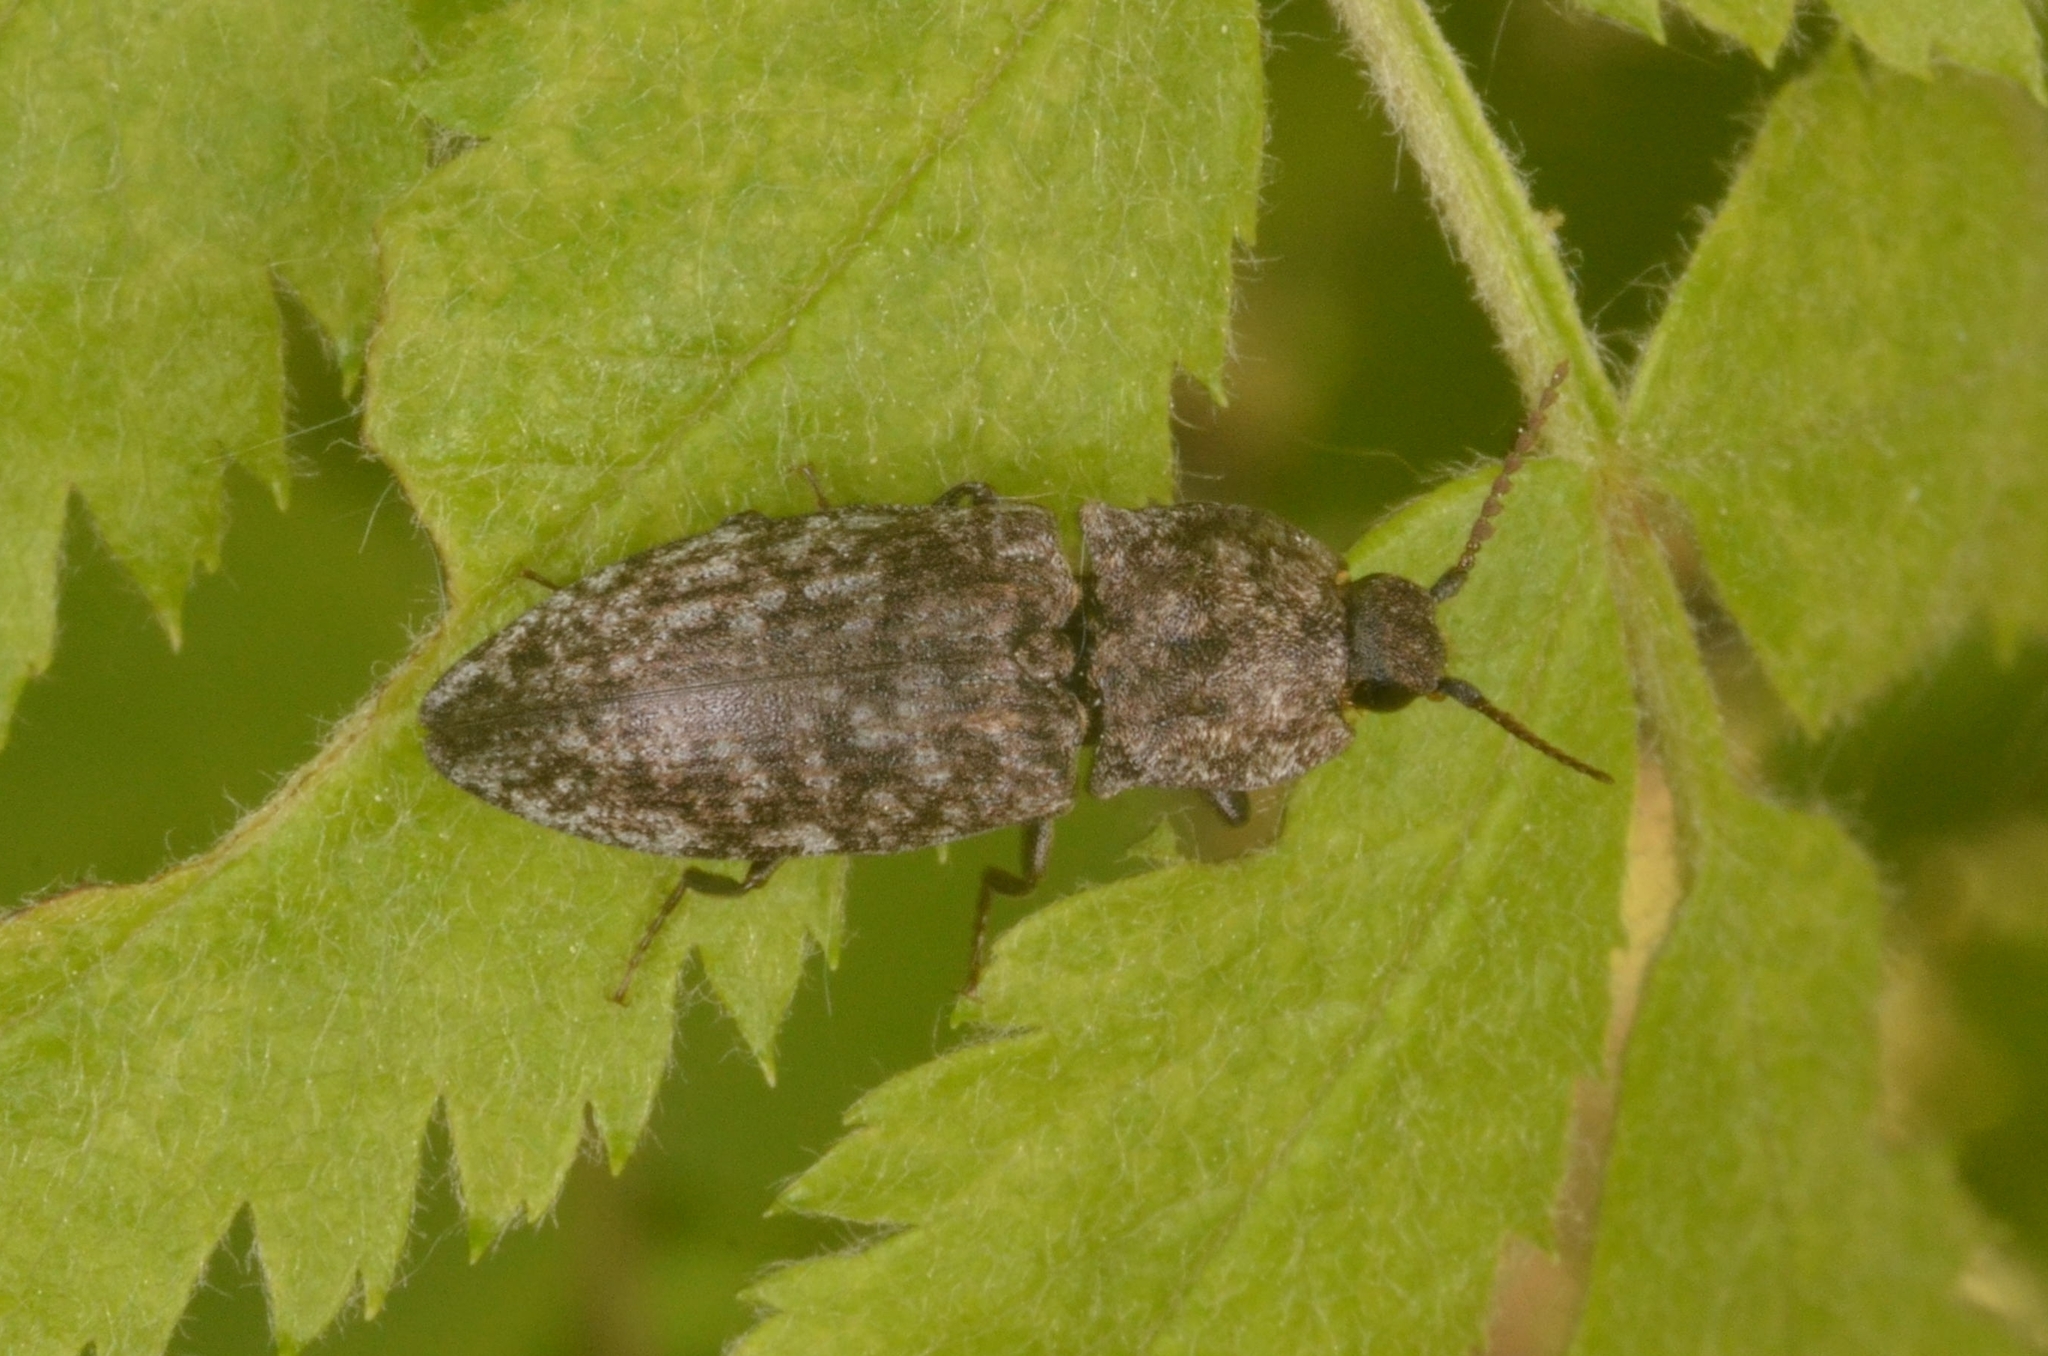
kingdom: Animalia
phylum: Arthropoda
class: Insecta
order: Coleoptera
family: Elateridae
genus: Agrypnus
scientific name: Agrypnus murinus
